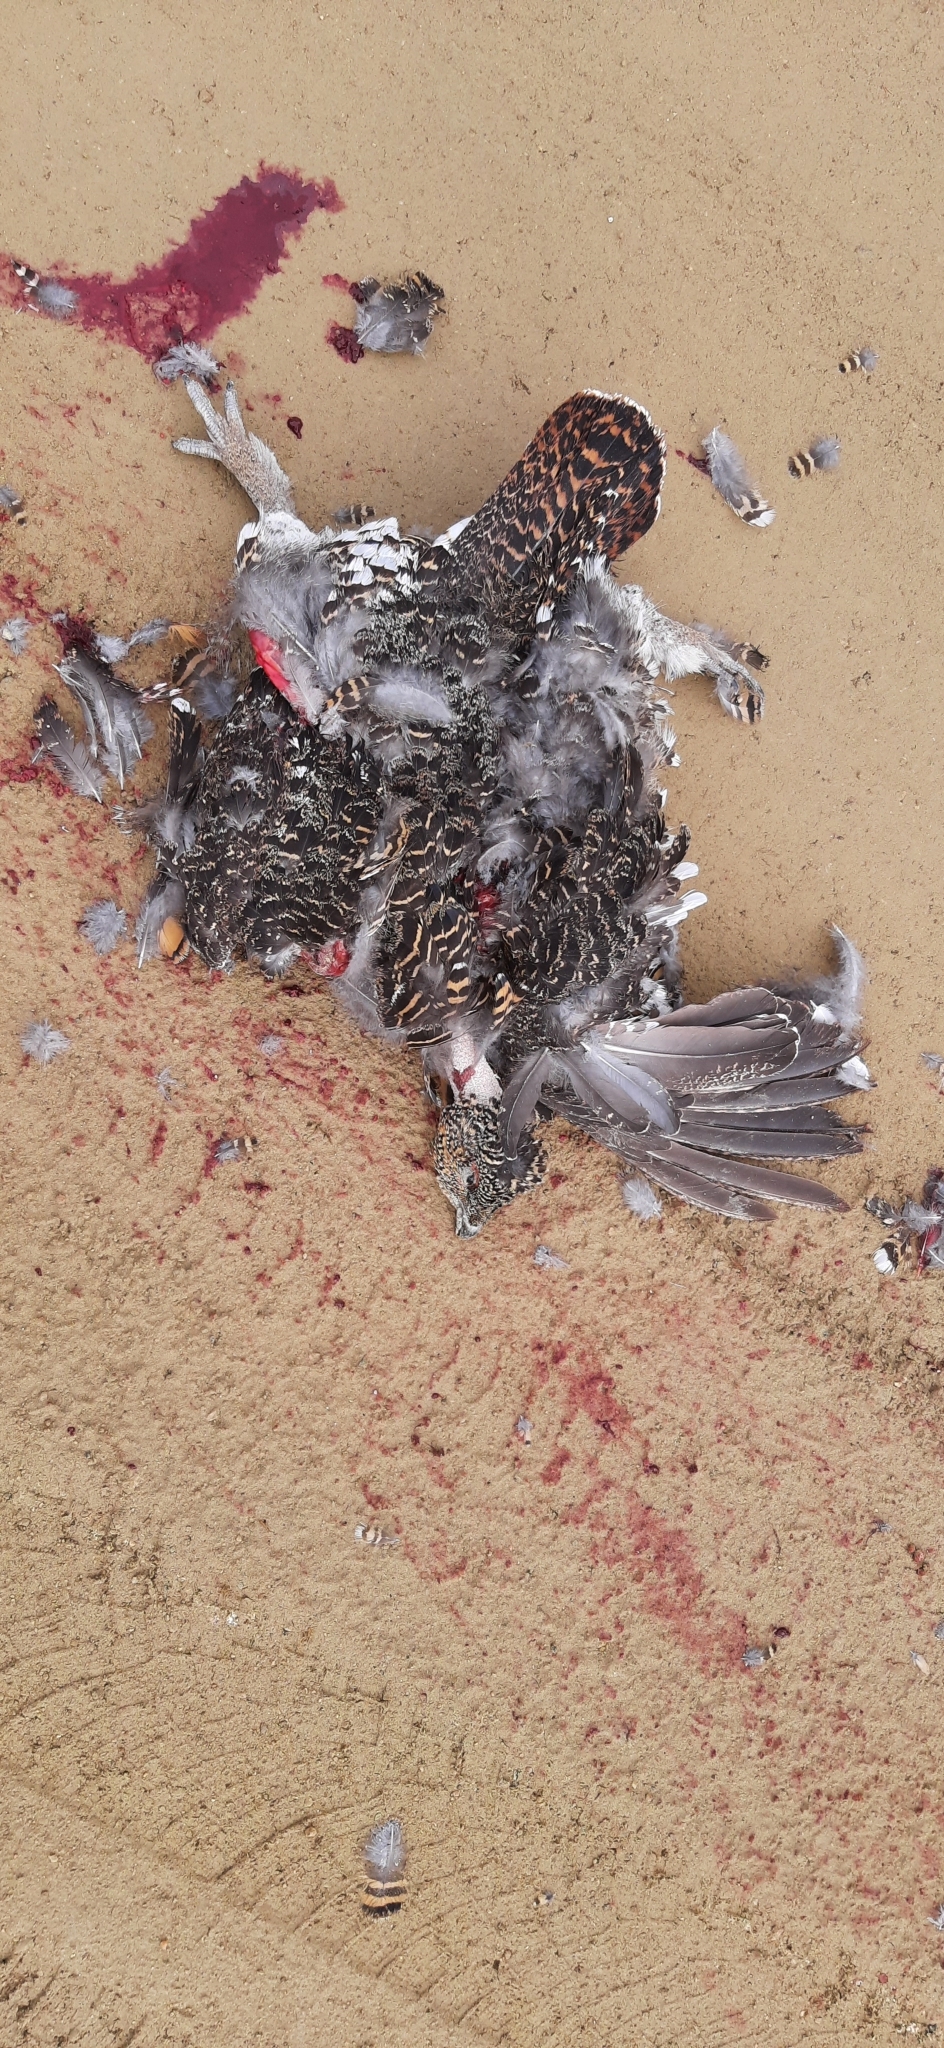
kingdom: Animalia
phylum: Chordata
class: Aves
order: Galliformes
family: Phasianidae
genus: Tetrao
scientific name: Tetrao urogallus
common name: Western capercaillie
